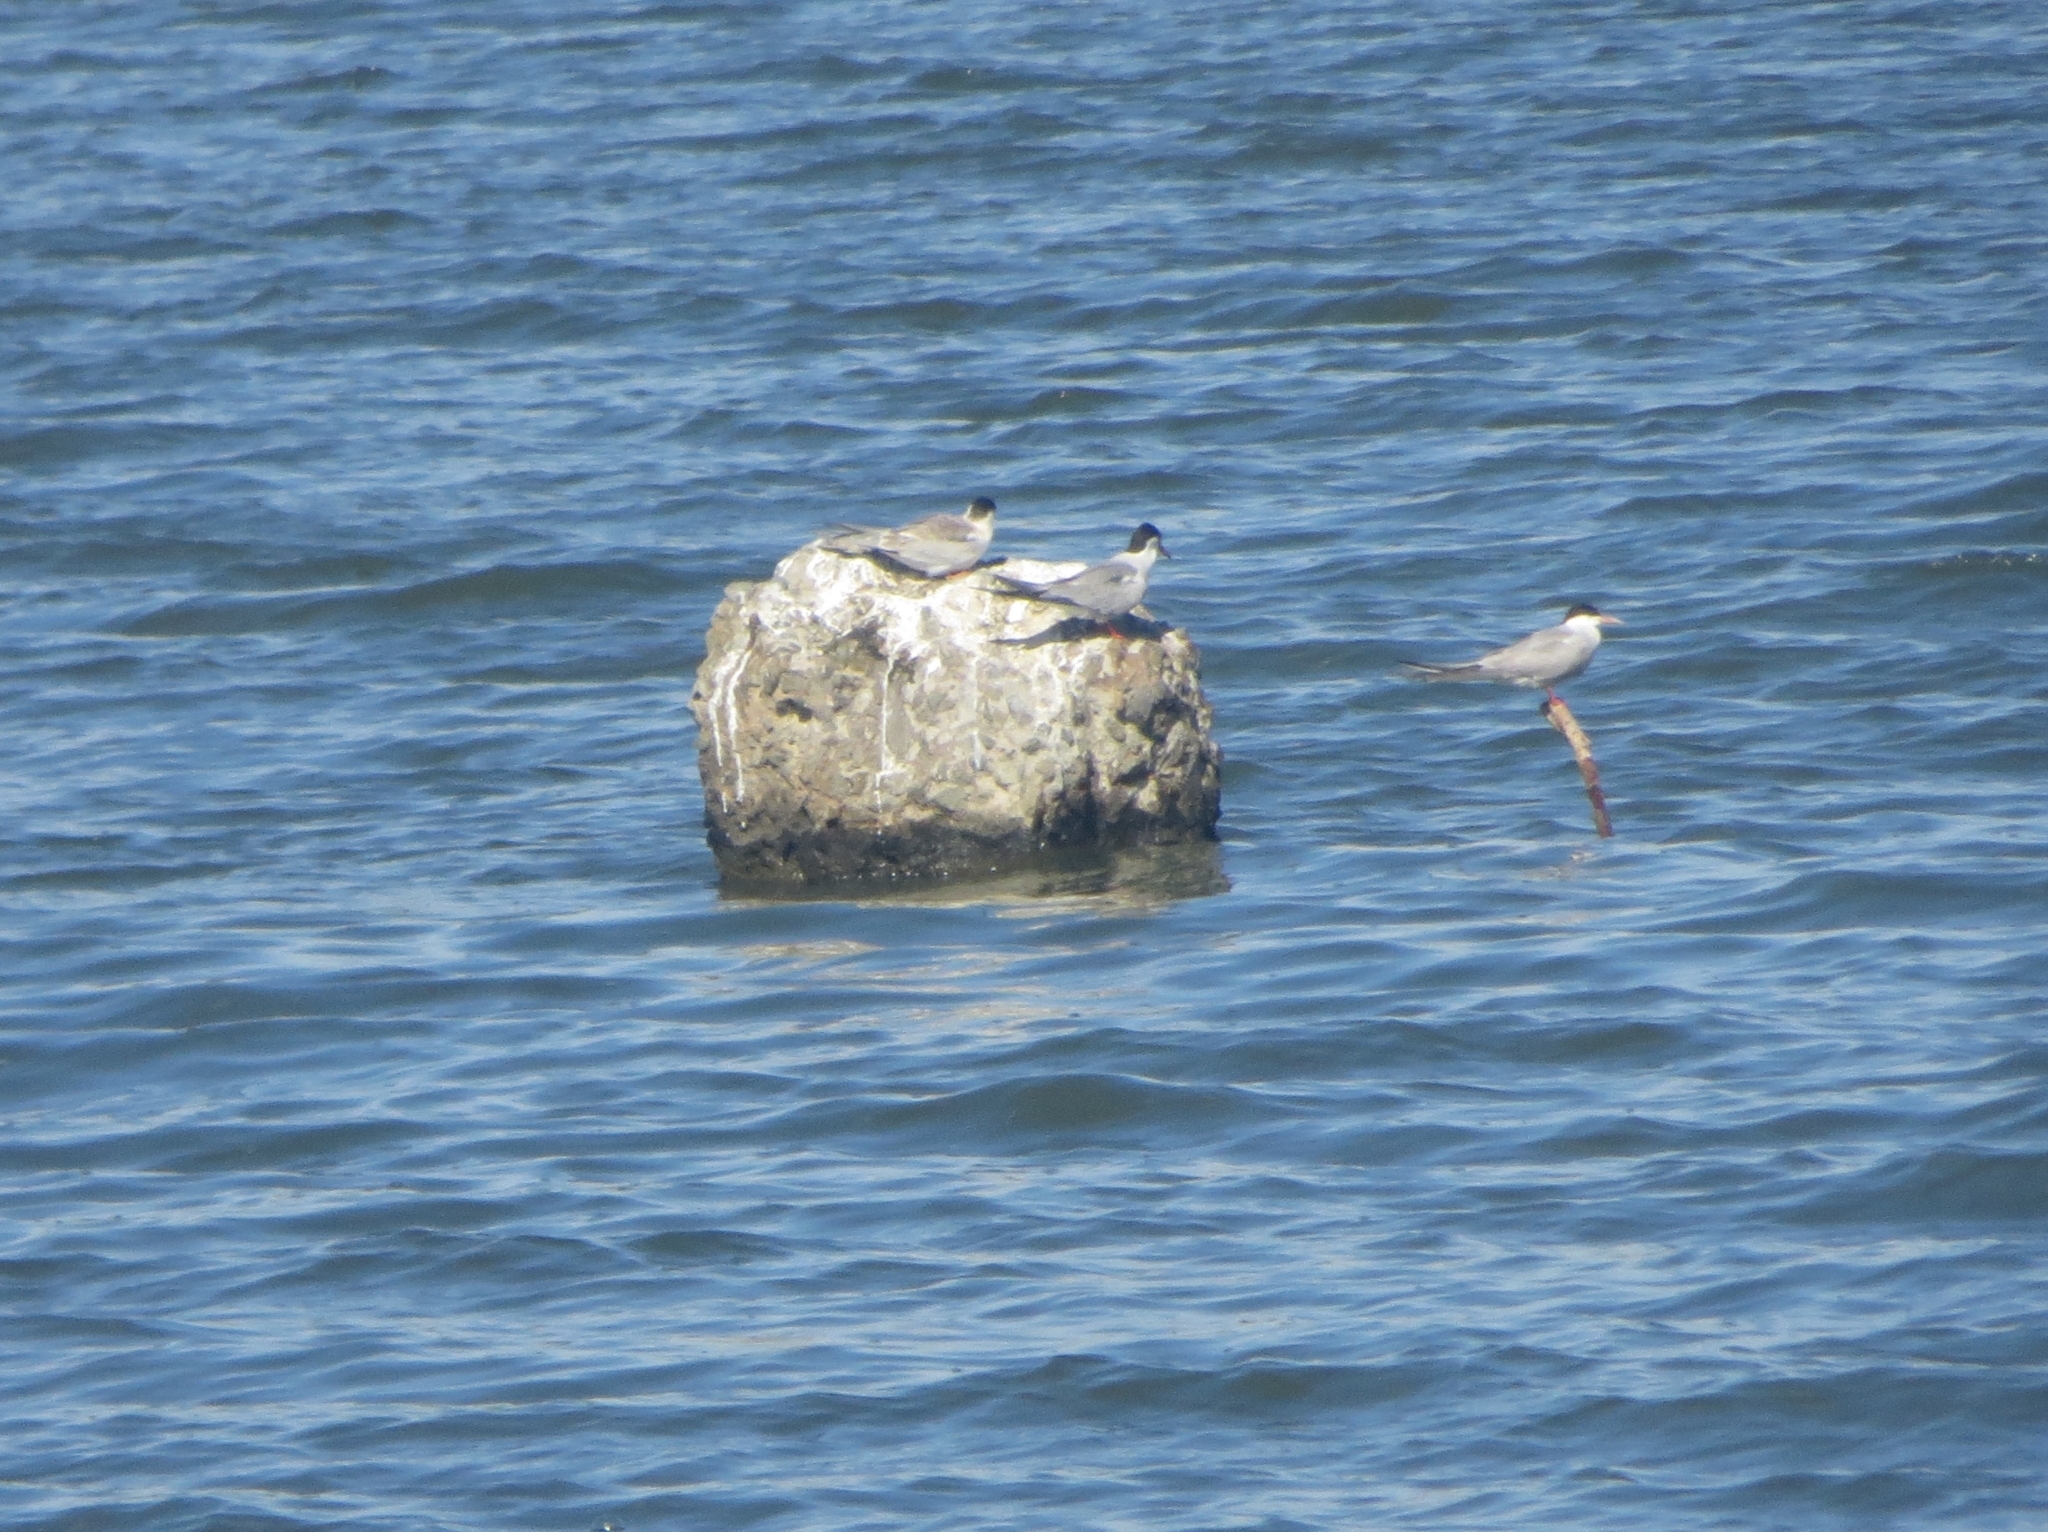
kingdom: Animalia
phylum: Chordata
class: Aves
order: Charadriiformes
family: Laridae
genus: Sterna
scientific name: Sterna hirundo
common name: Common tern
